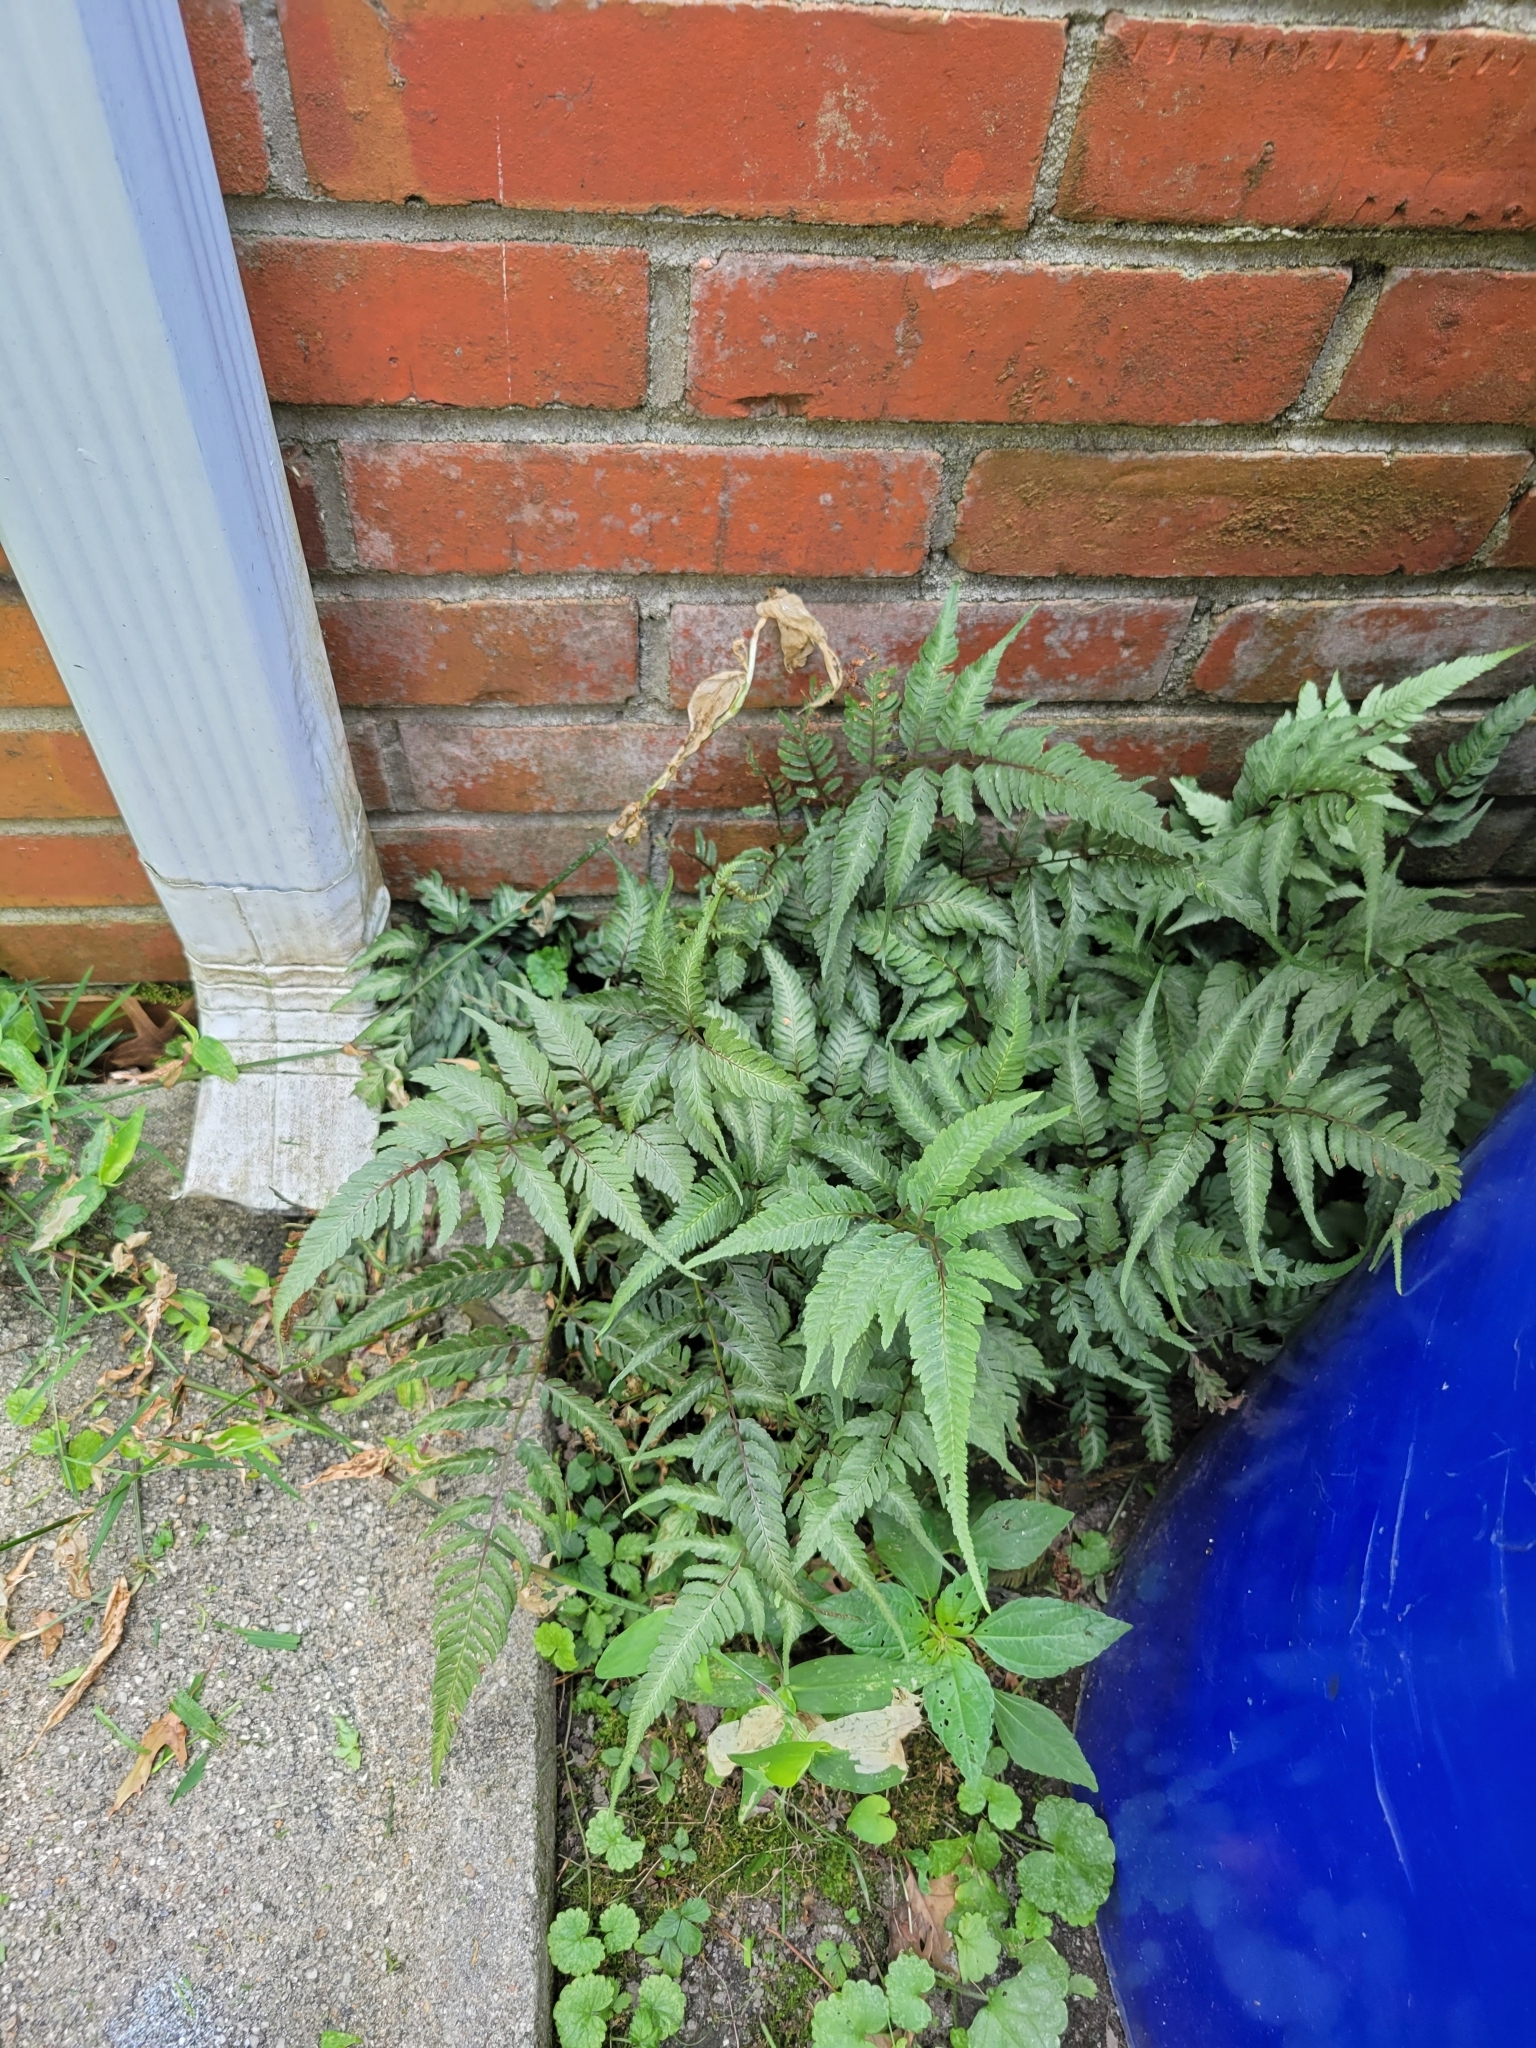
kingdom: Plantae
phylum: Tracheophyta
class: Polypodiopsida
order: Polypodiales
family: Athyriaceae
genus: Anisocampium
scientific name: Anisocampium niponicum
